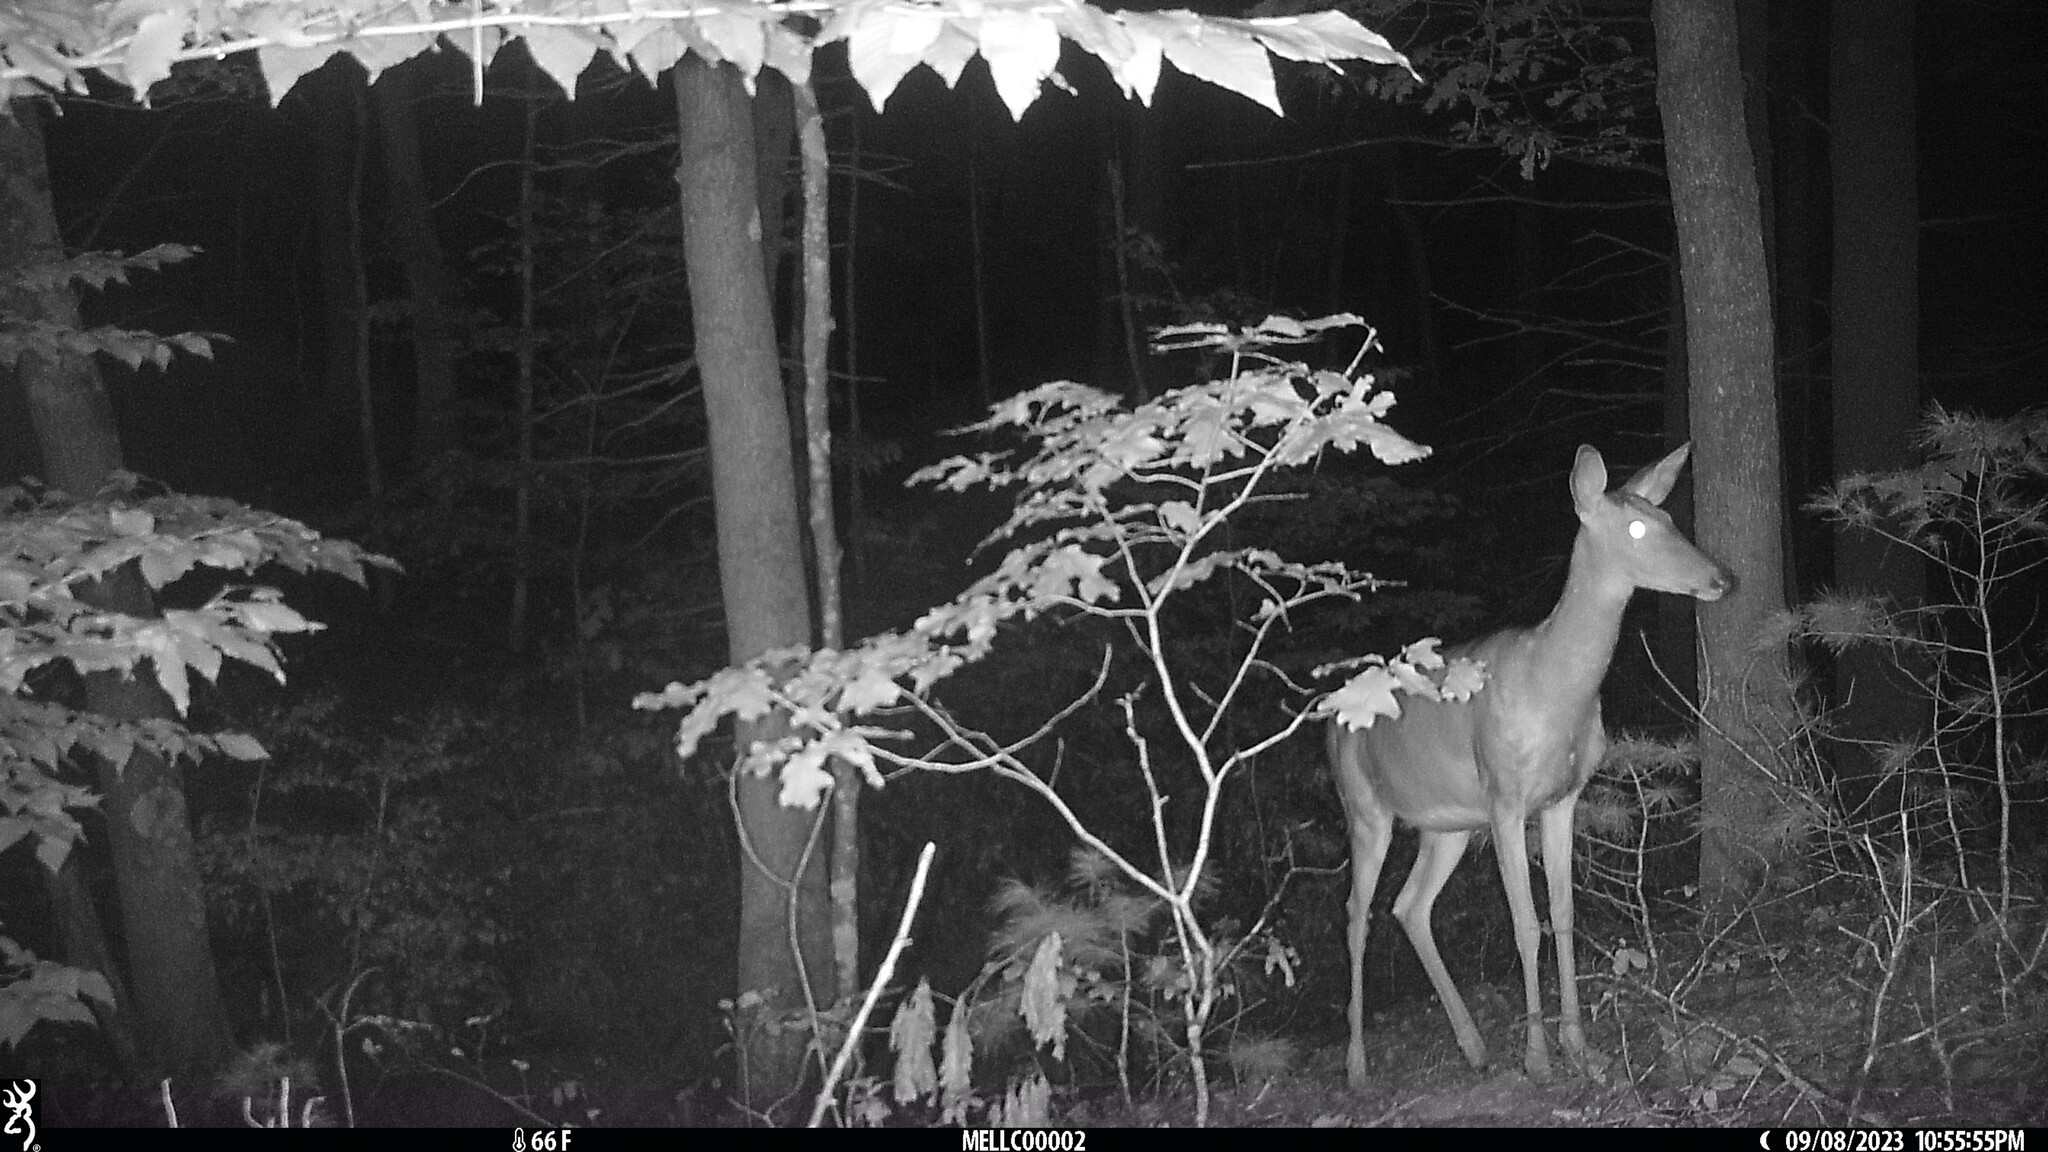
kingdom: Animalia
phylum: Chordata
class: Mammalia
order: Artiodactyla
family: Cervidae
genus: Odocoileus
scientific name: Odocoileus virginianus
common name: White-tailed deer
